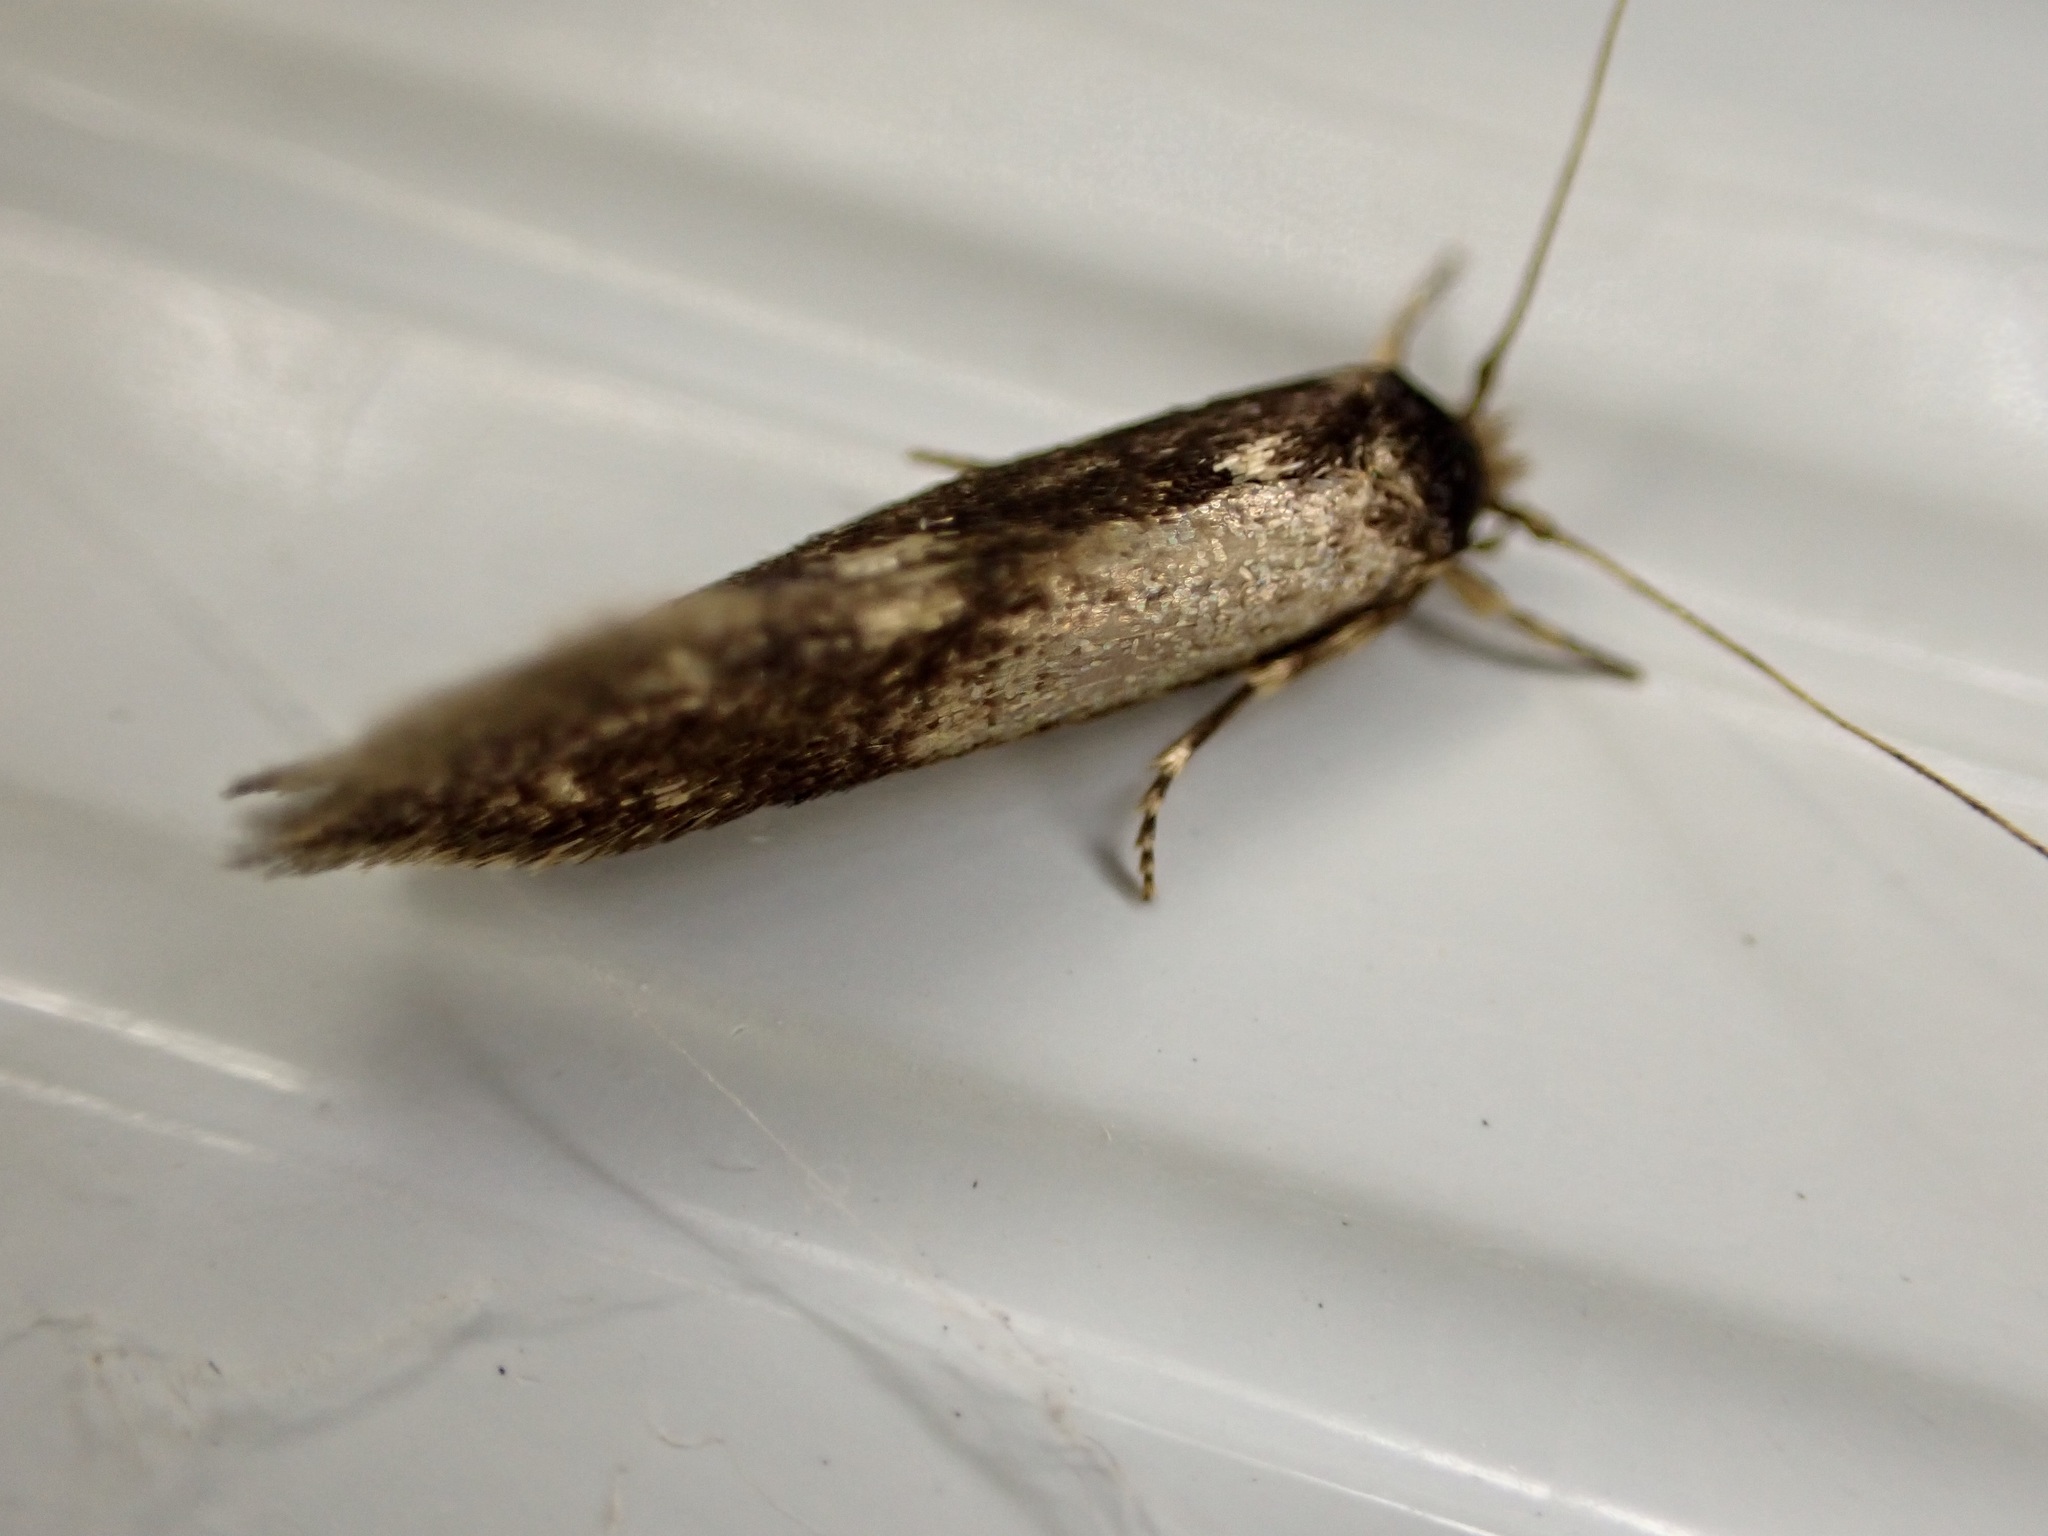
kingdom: Animalia
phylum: Arthropoda
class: Insecta
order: Lepidoptera
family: Tineidae
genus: Opogona
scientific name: Opogona omoscopa
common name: Moth
